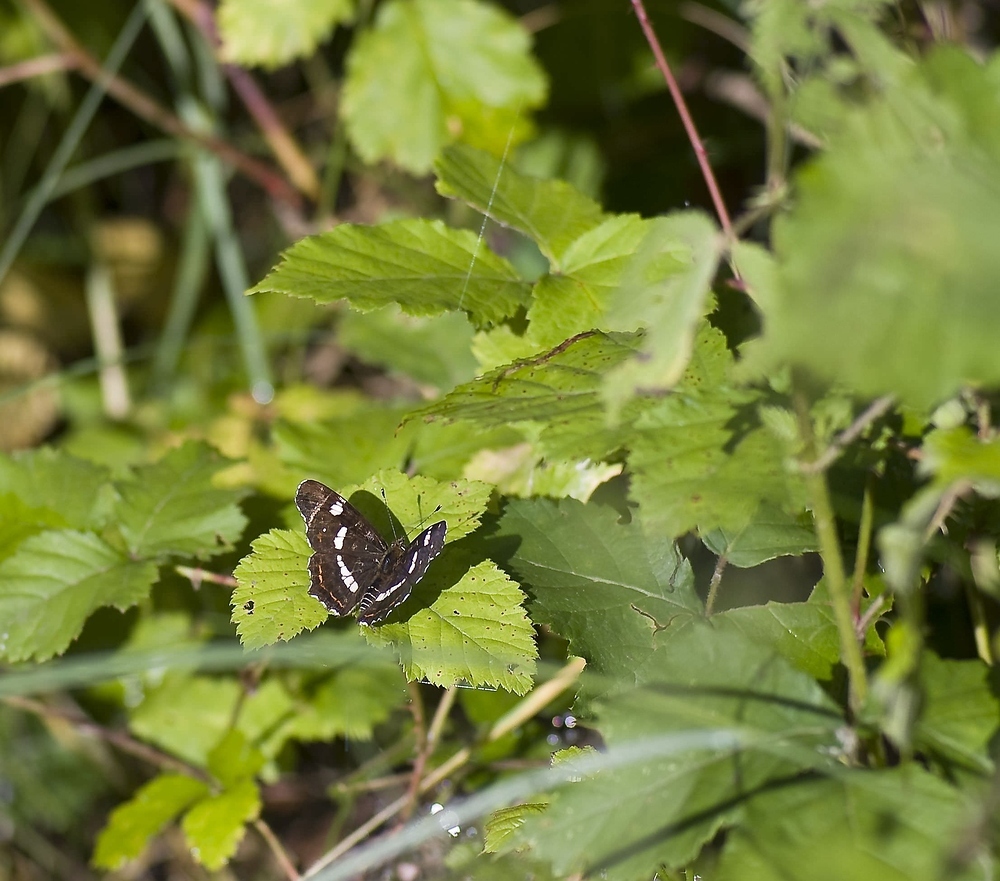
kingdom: Animalia
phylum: Arthropoda
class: Insecta
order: Lepidoptera
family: Nymphalidae
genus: Araschnia
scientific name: Araschnia levana
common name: Map butterfly
